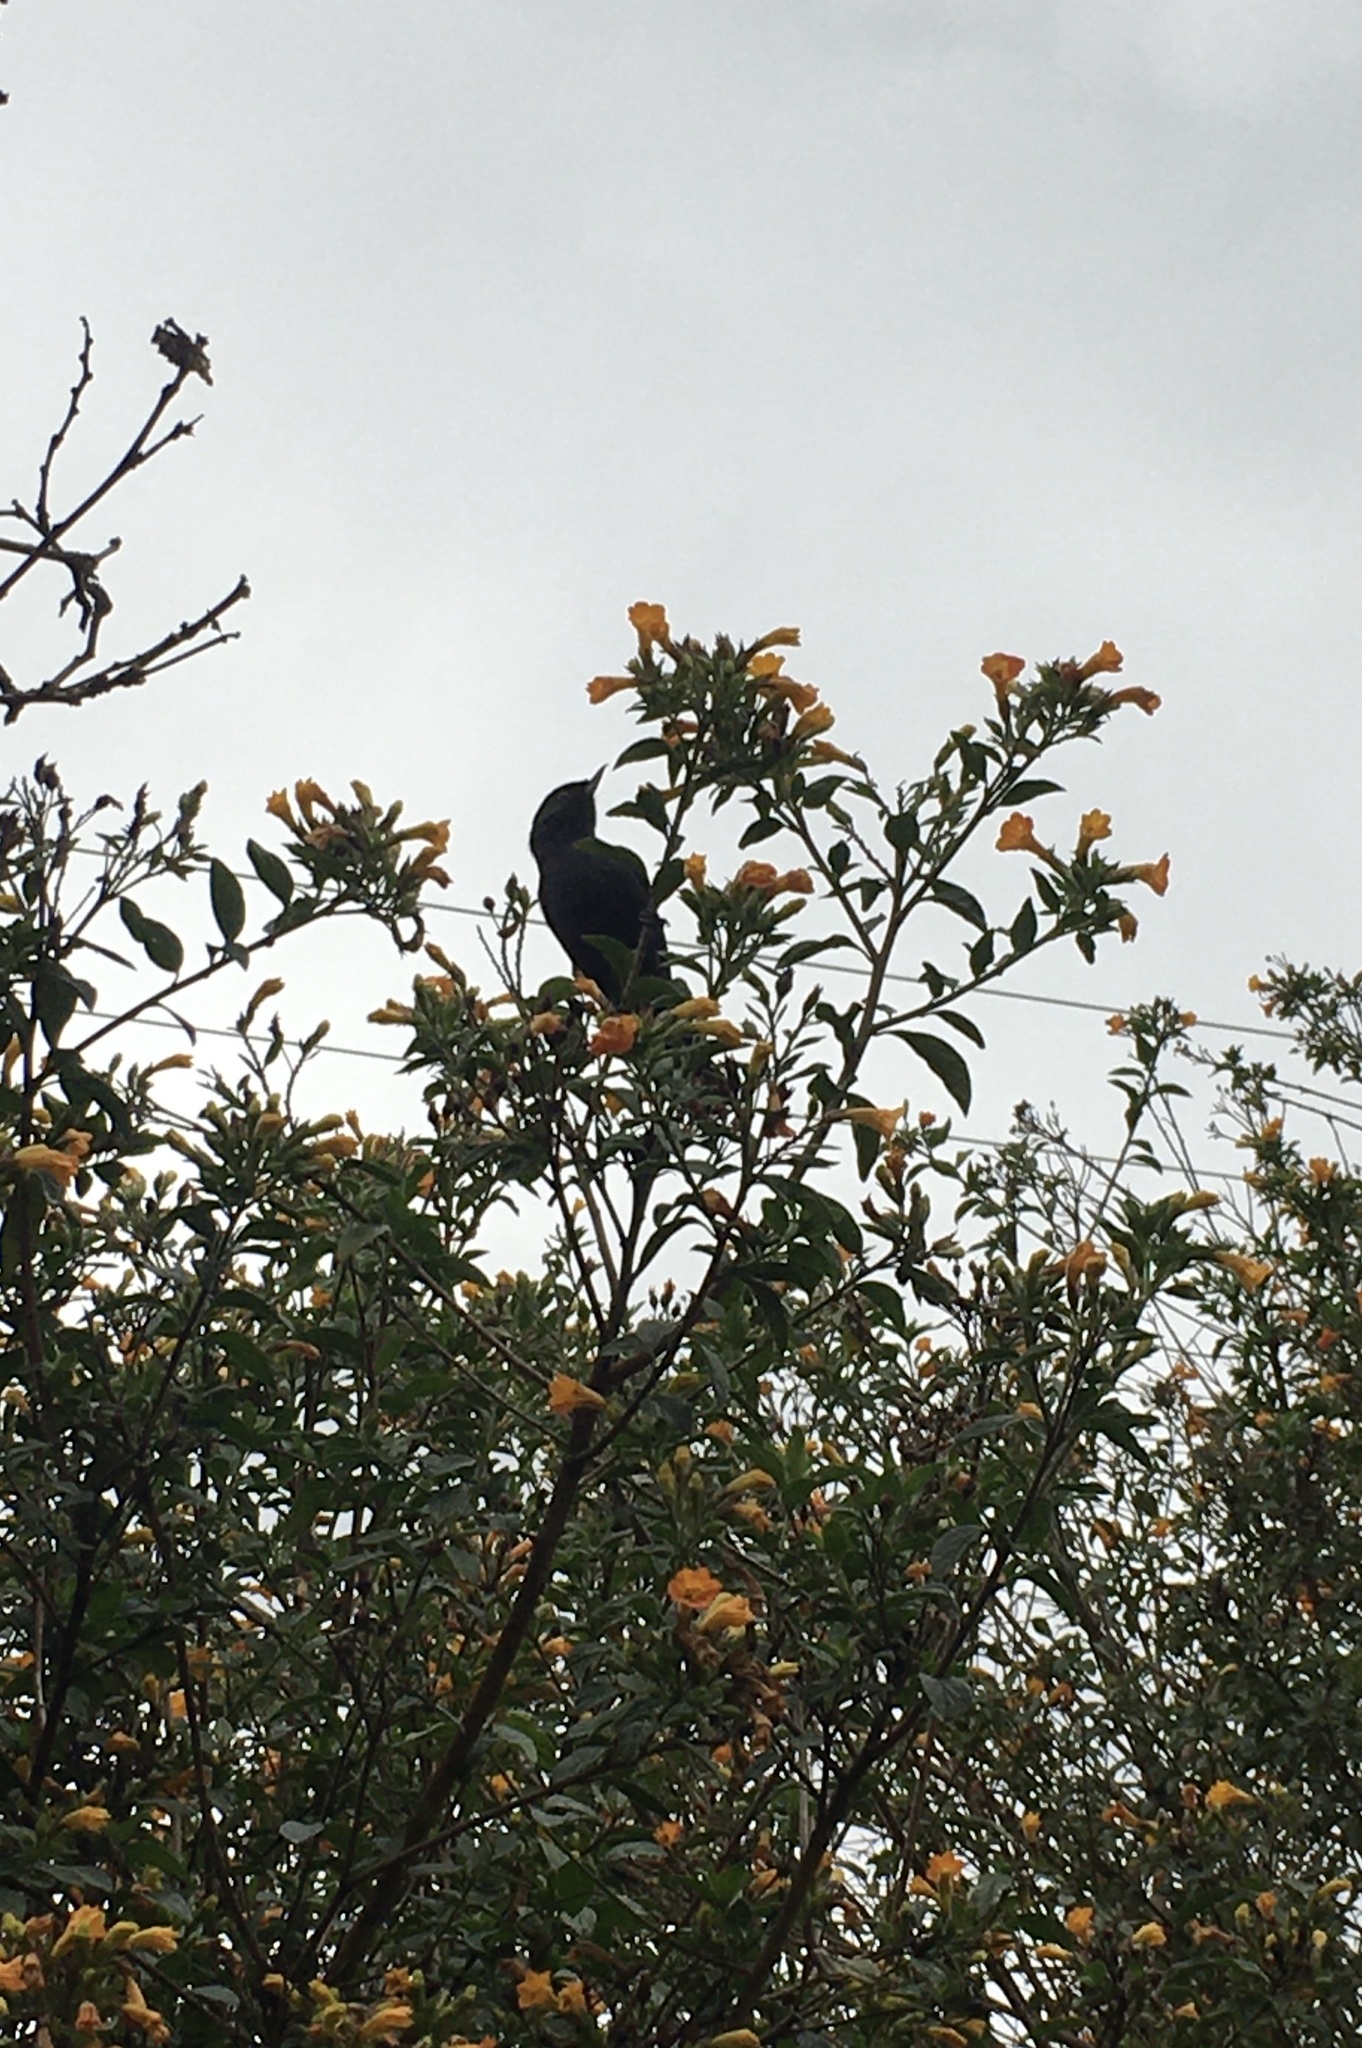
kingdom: Animalia
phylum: Chordata
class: Aves
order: Passeriformes
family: Thraupidae
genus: Diglossa
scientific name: Diglossa humeralis
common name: Black flowerpiercer
